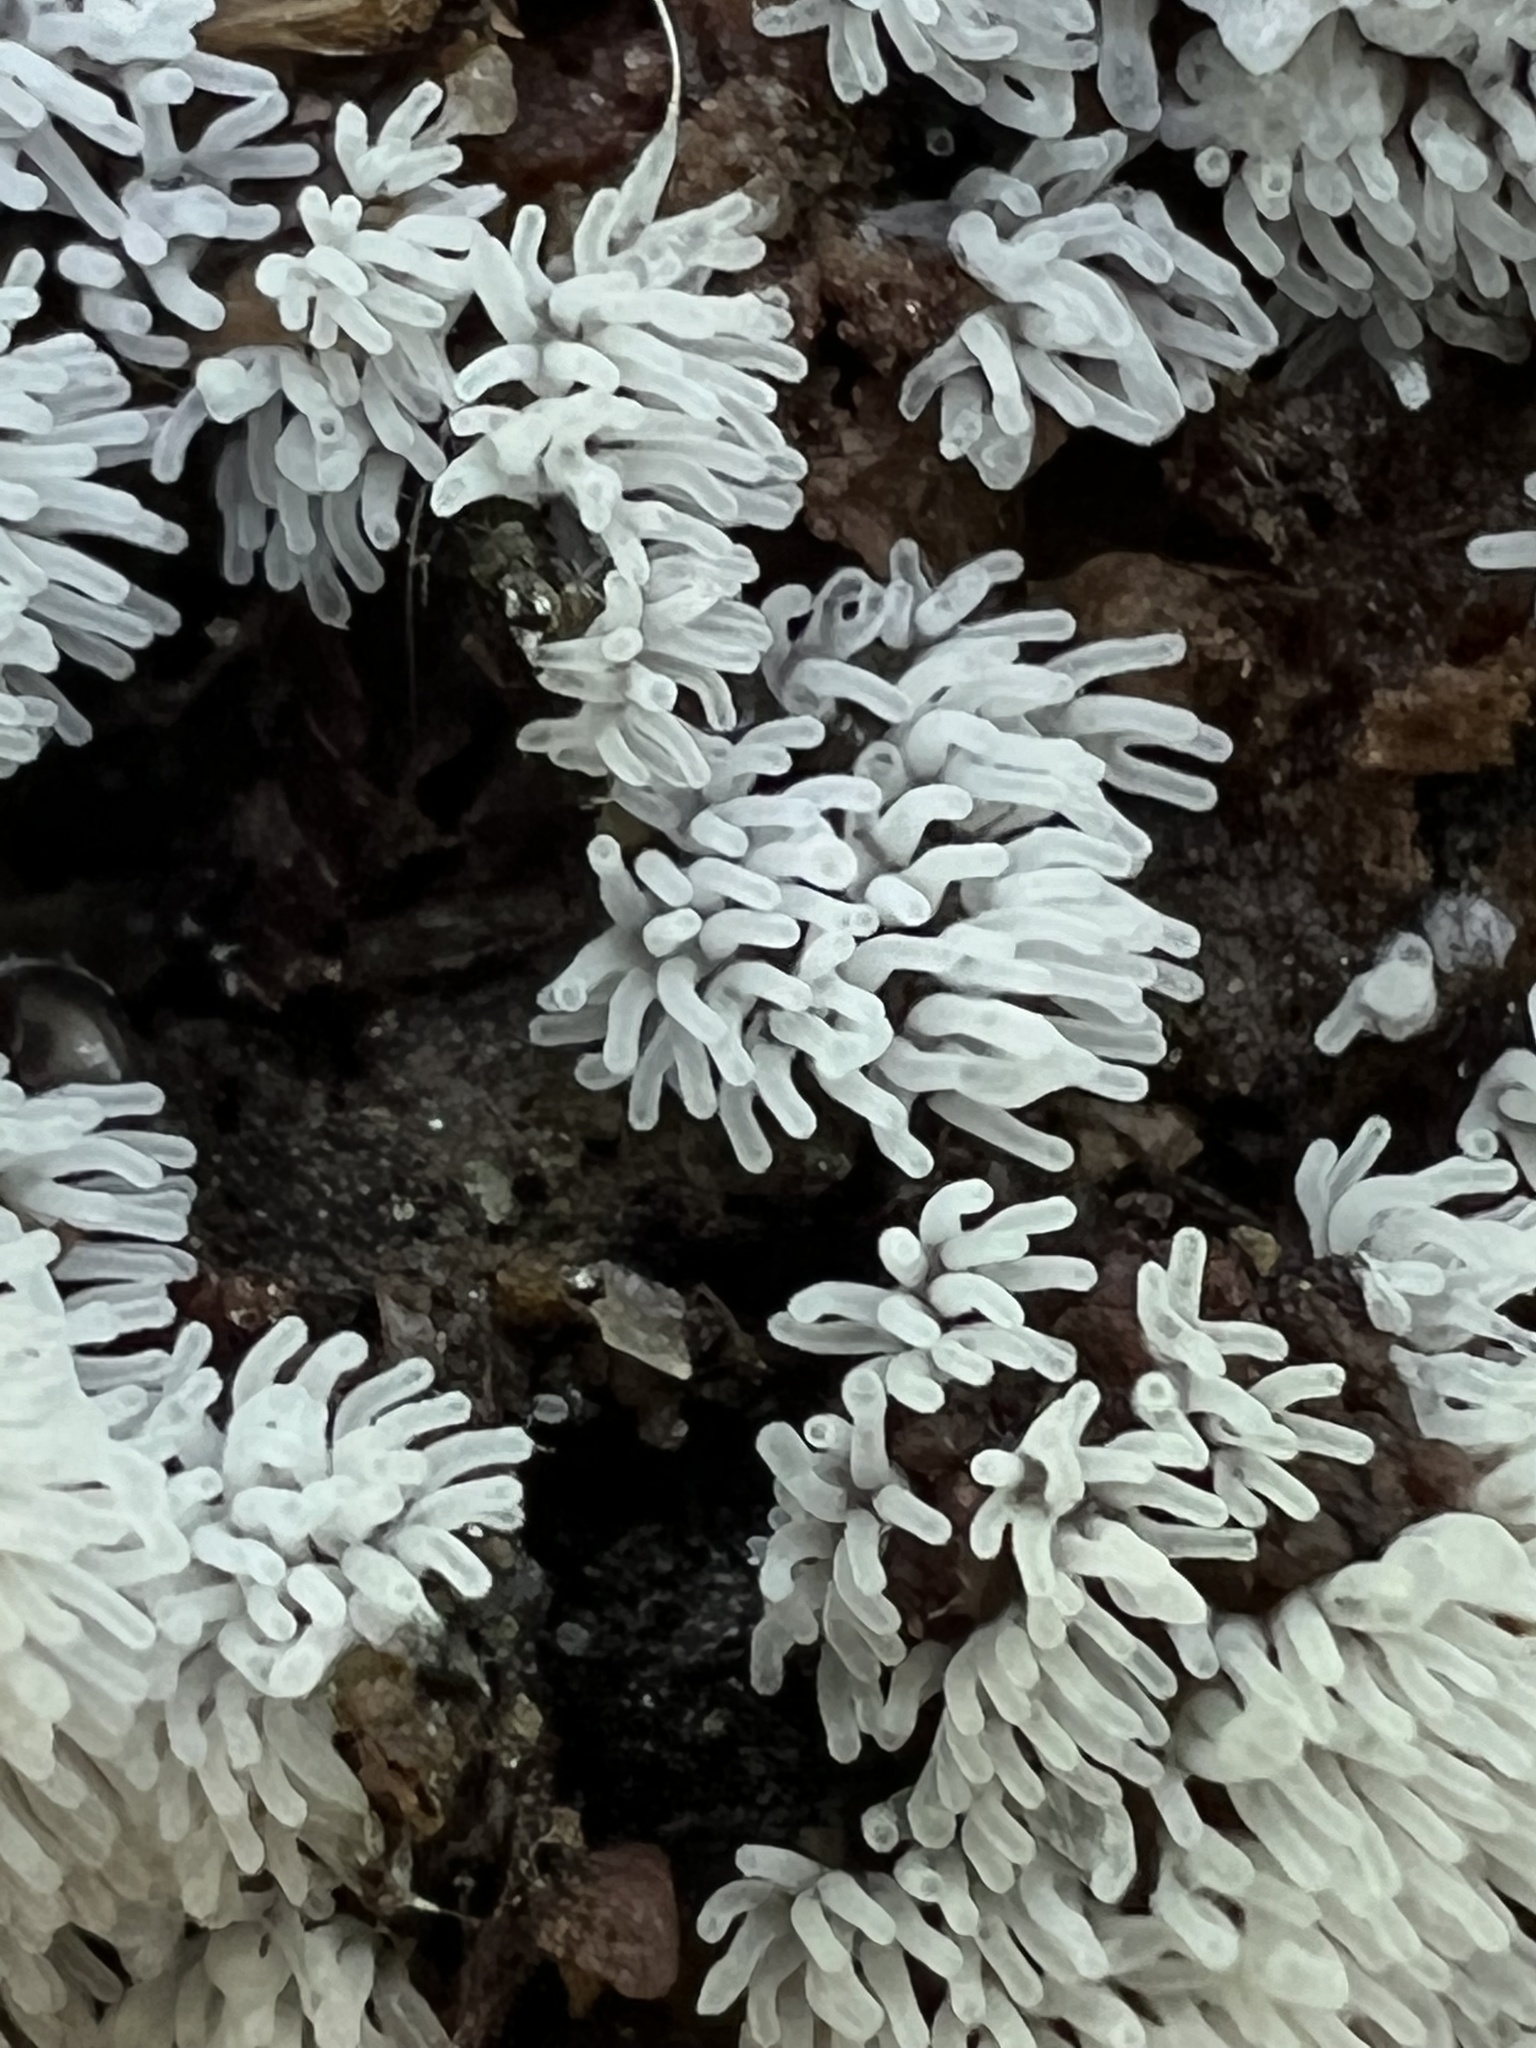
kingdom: Protozoa
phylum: Mycetozoa
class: Protosteliomycetes
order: Ceratiomyxales
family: Ceratiomyxaceae
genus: Ceratiomyxa
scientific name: Ceratiomyxa fruticulosa
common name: Honeycomb coral slime mold
